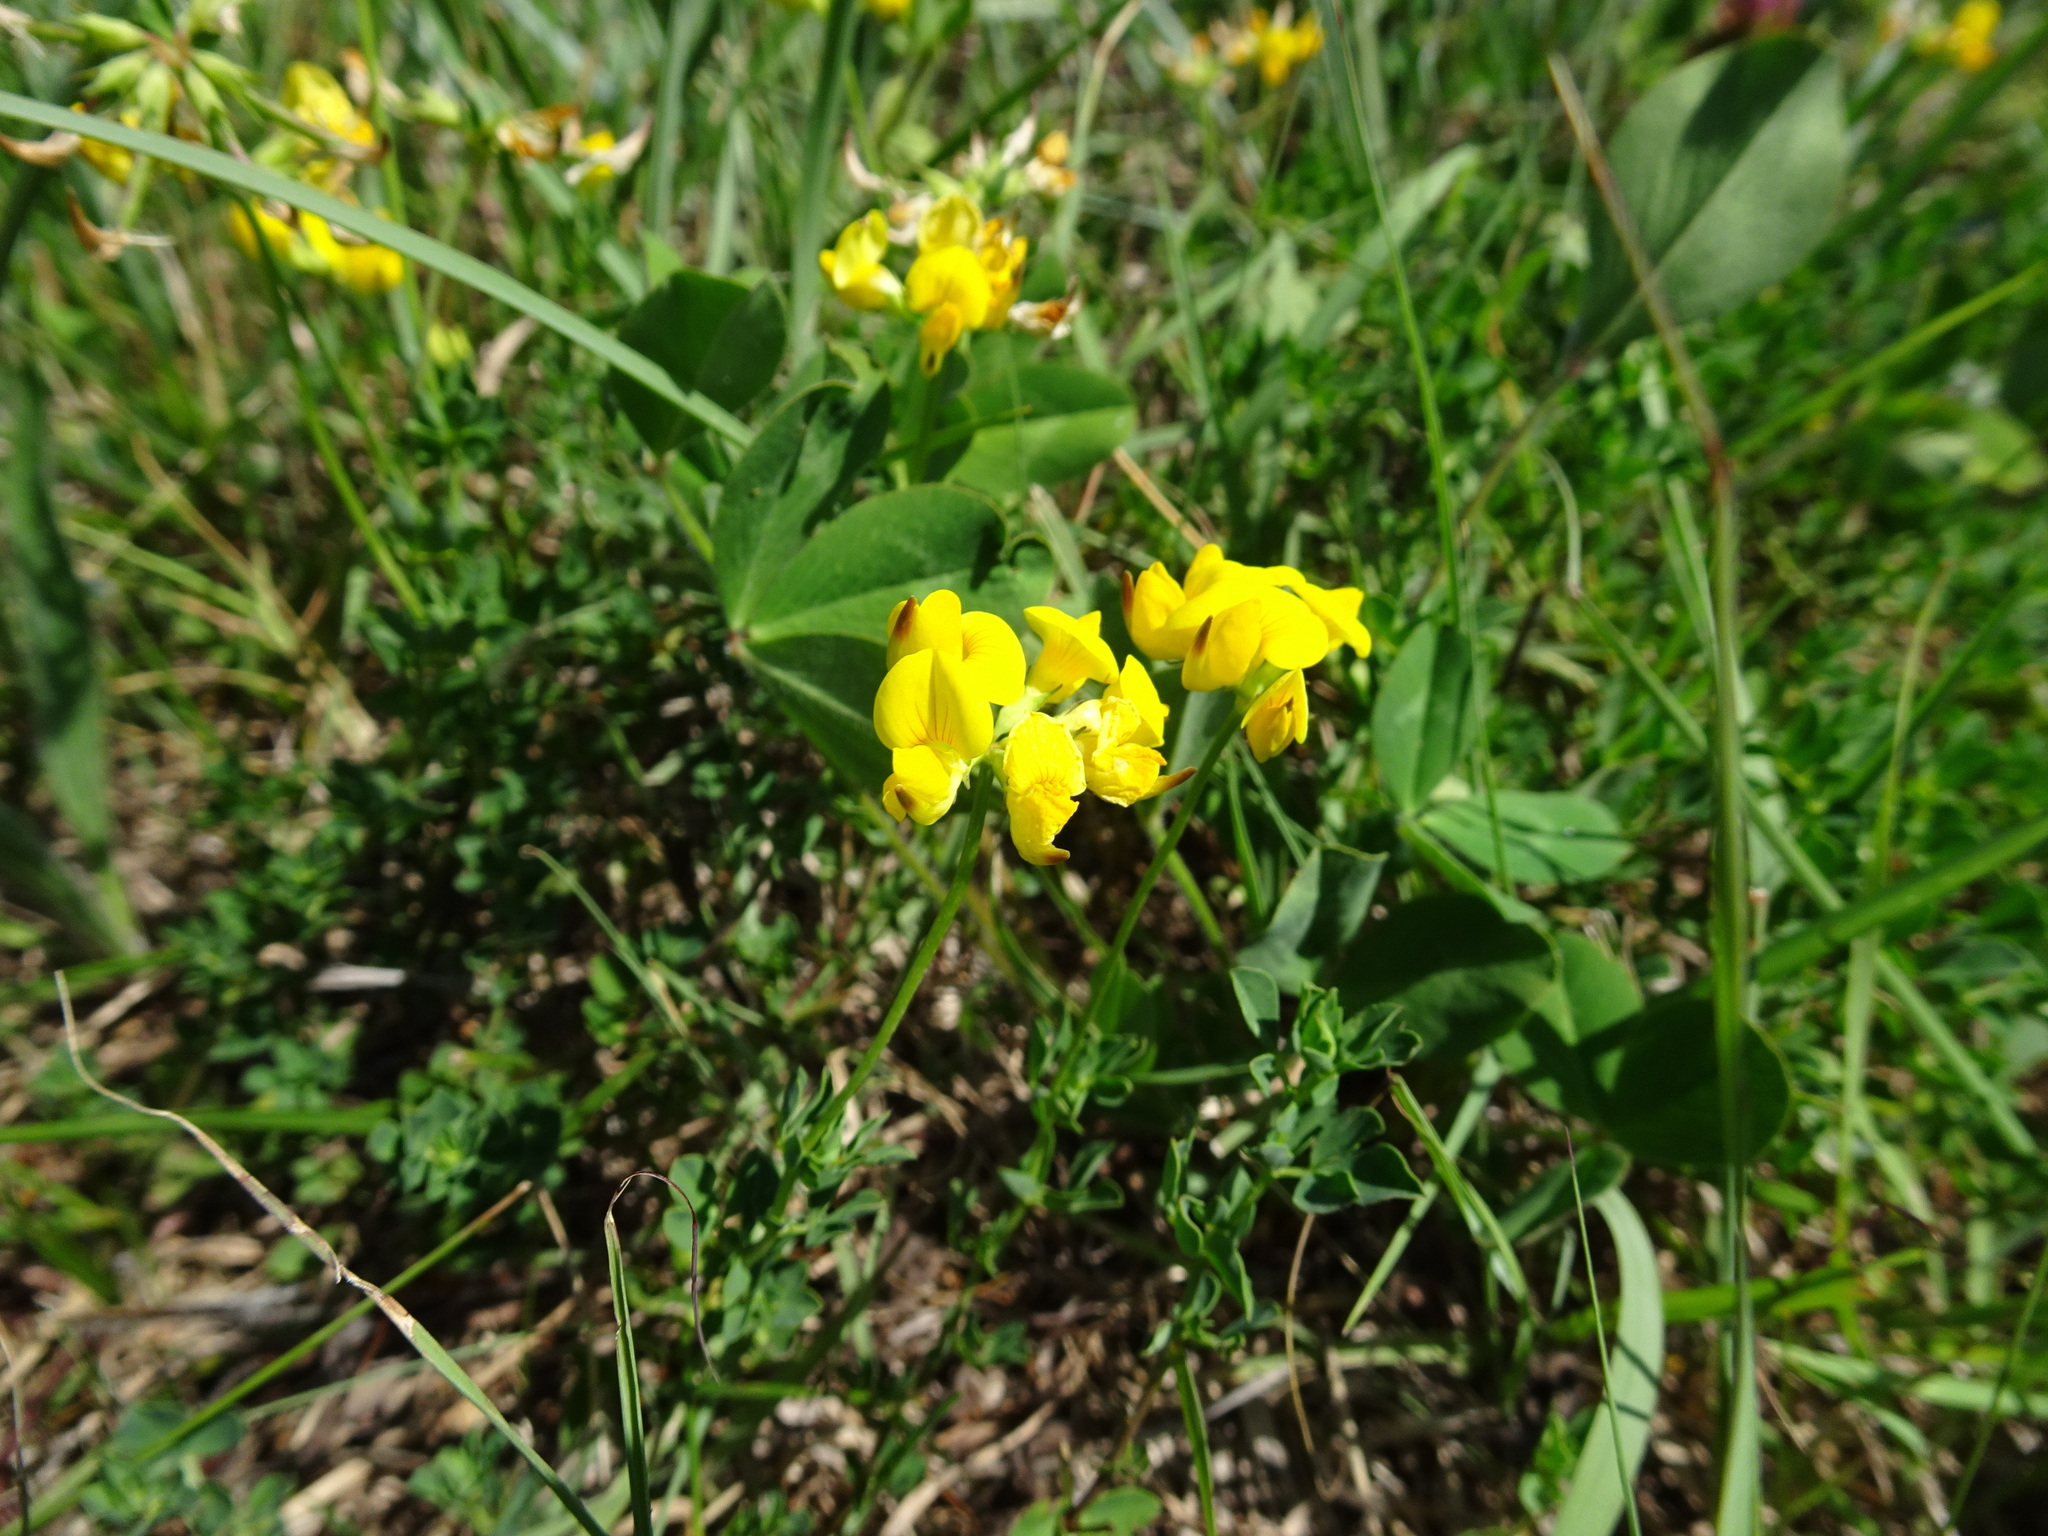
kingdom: Plantae
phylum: Tracheophyta
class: Magnoliopsida
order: Fabales
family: Fabaceae
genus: Lotus
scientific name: Lotus corniculatus
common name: Common bird's-foot-trefoil
